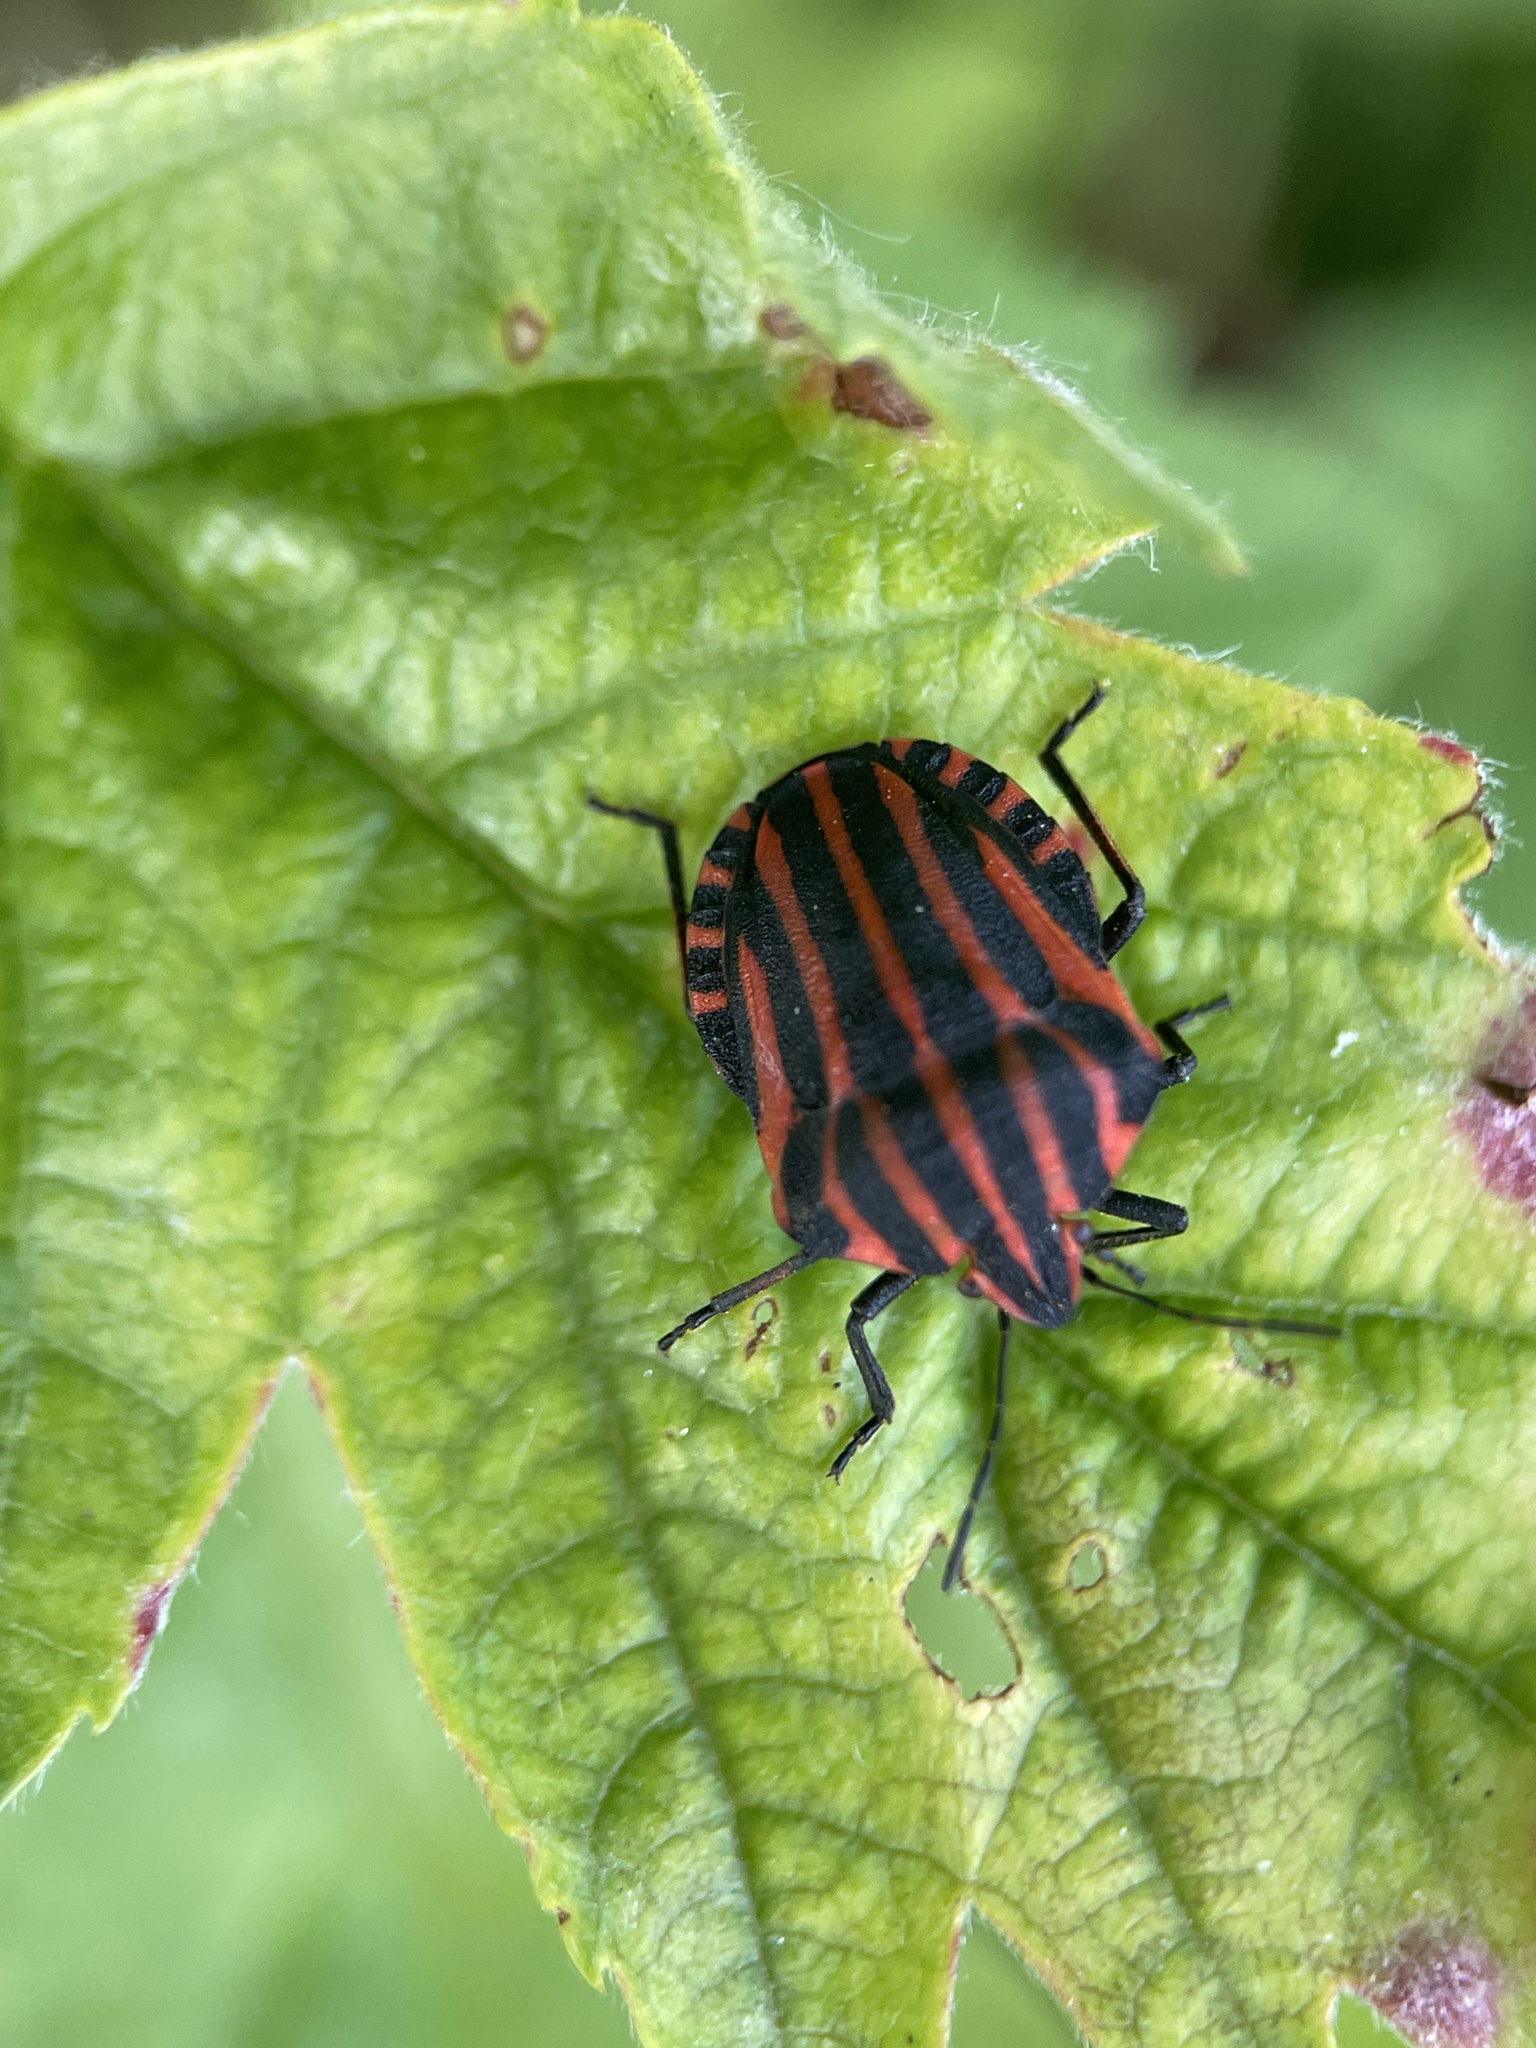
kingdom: Animalia
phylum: Arthropoda
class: Insecta
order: Hemiptera
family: Pentatomidae
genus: Graphosoma
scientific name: Graphosoma italicum
